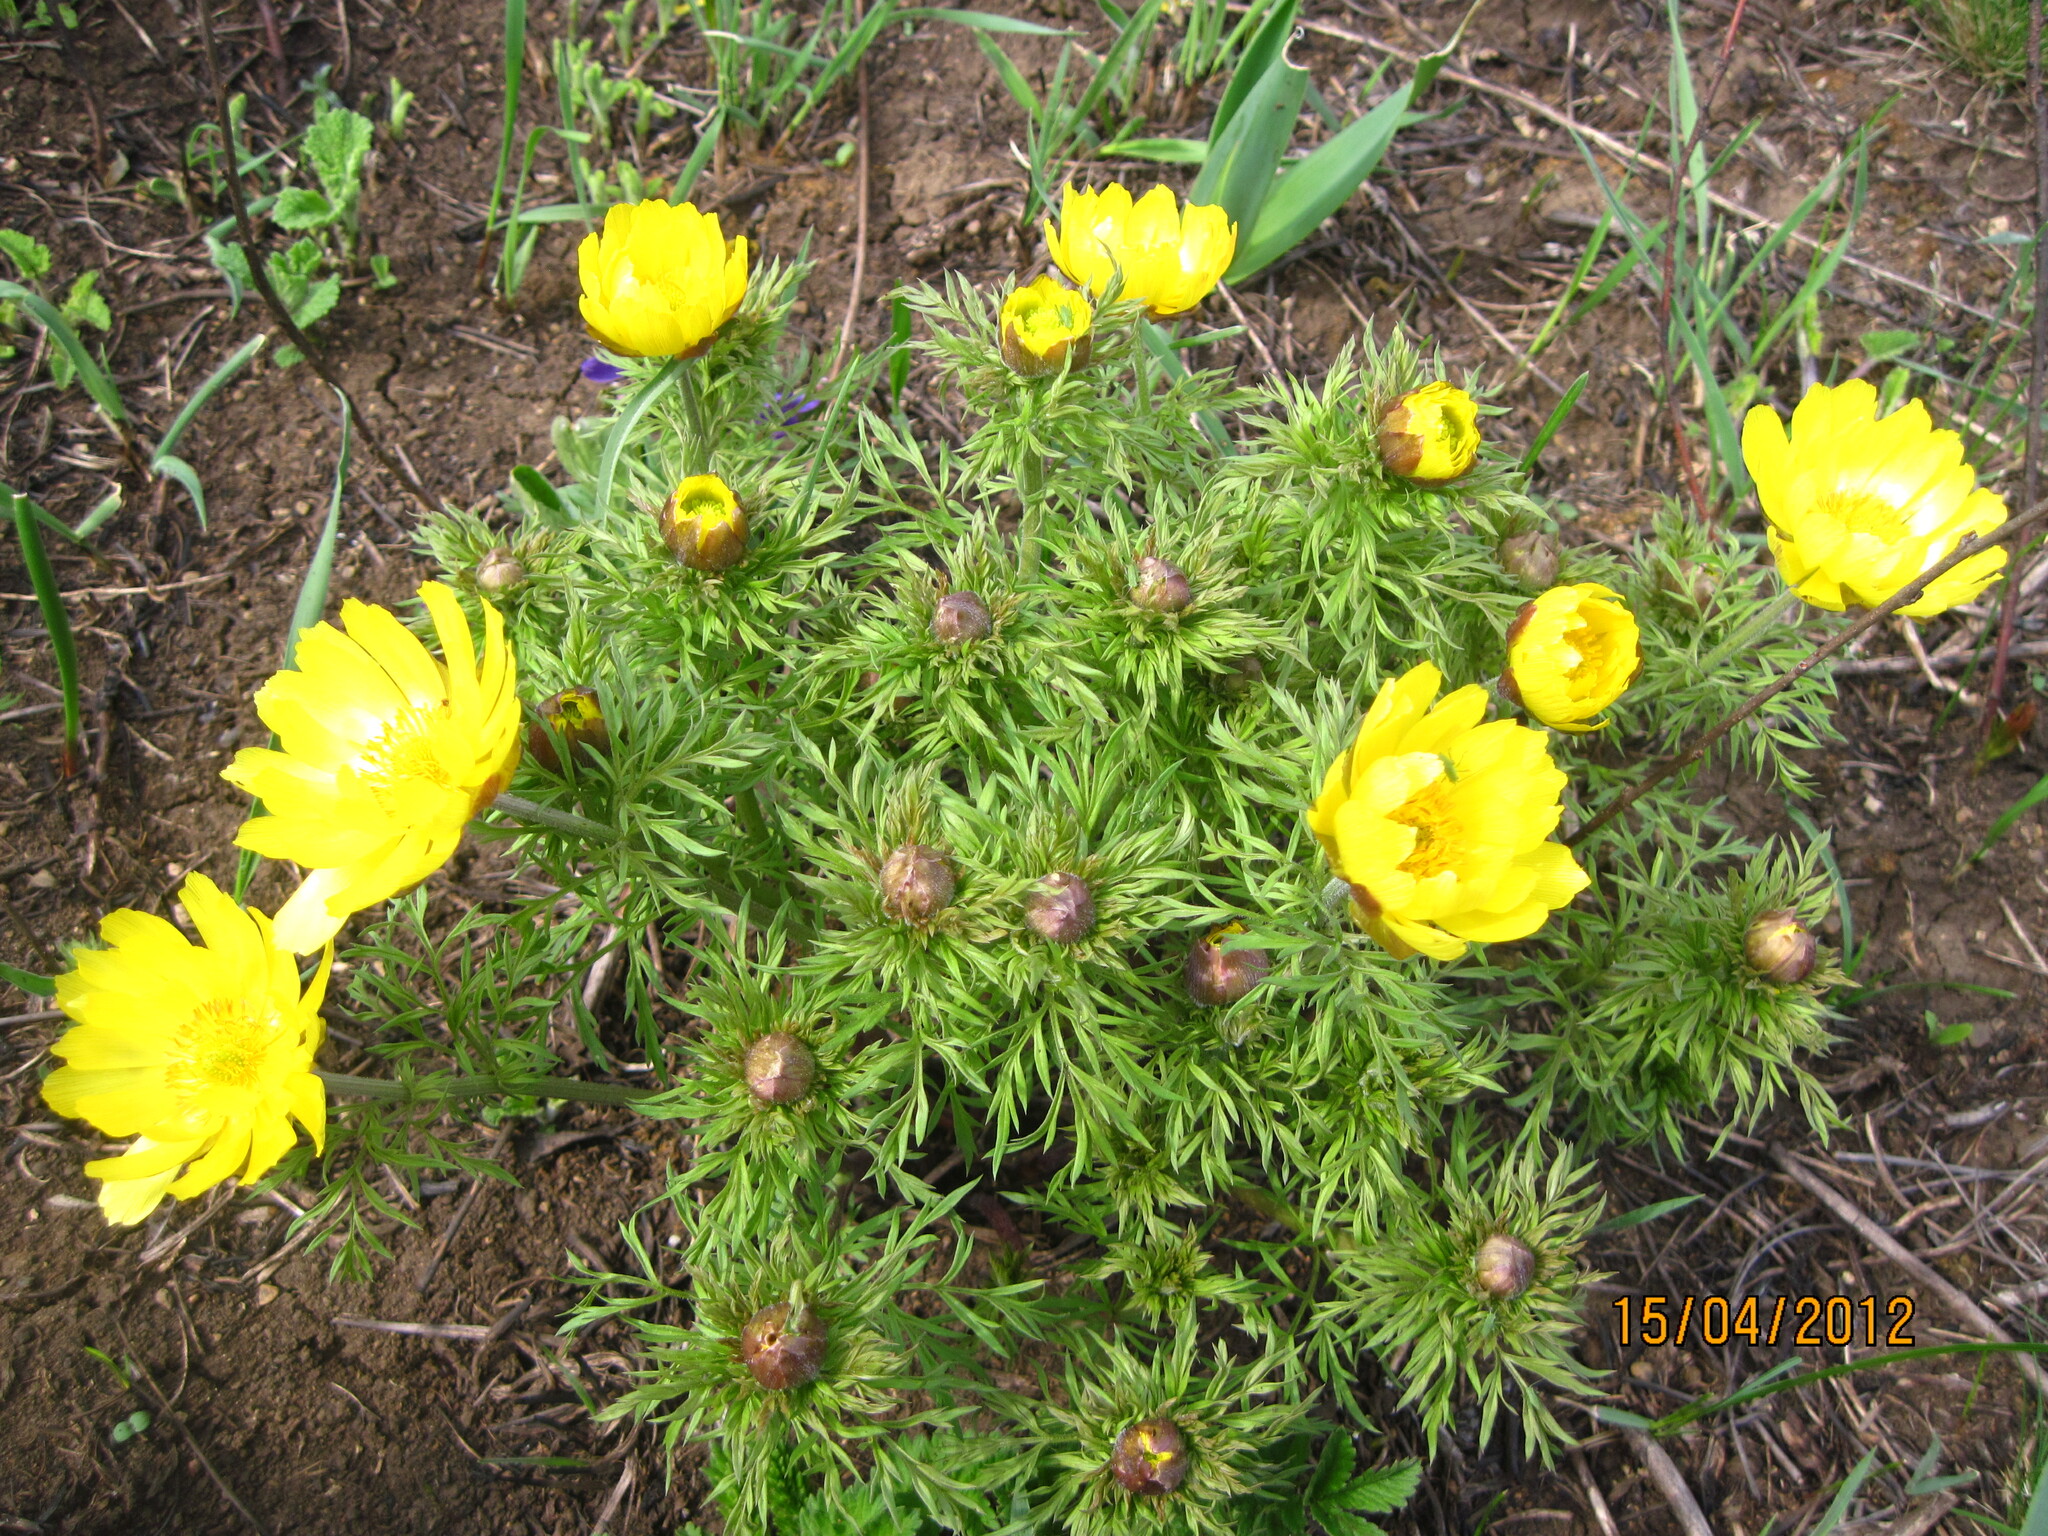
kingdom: Plantae
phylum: Tracheophyta
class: Magnoliopsida
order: Ranunculales
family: Ranunculaceae
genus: Adonis
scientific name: Adonis volgensis
